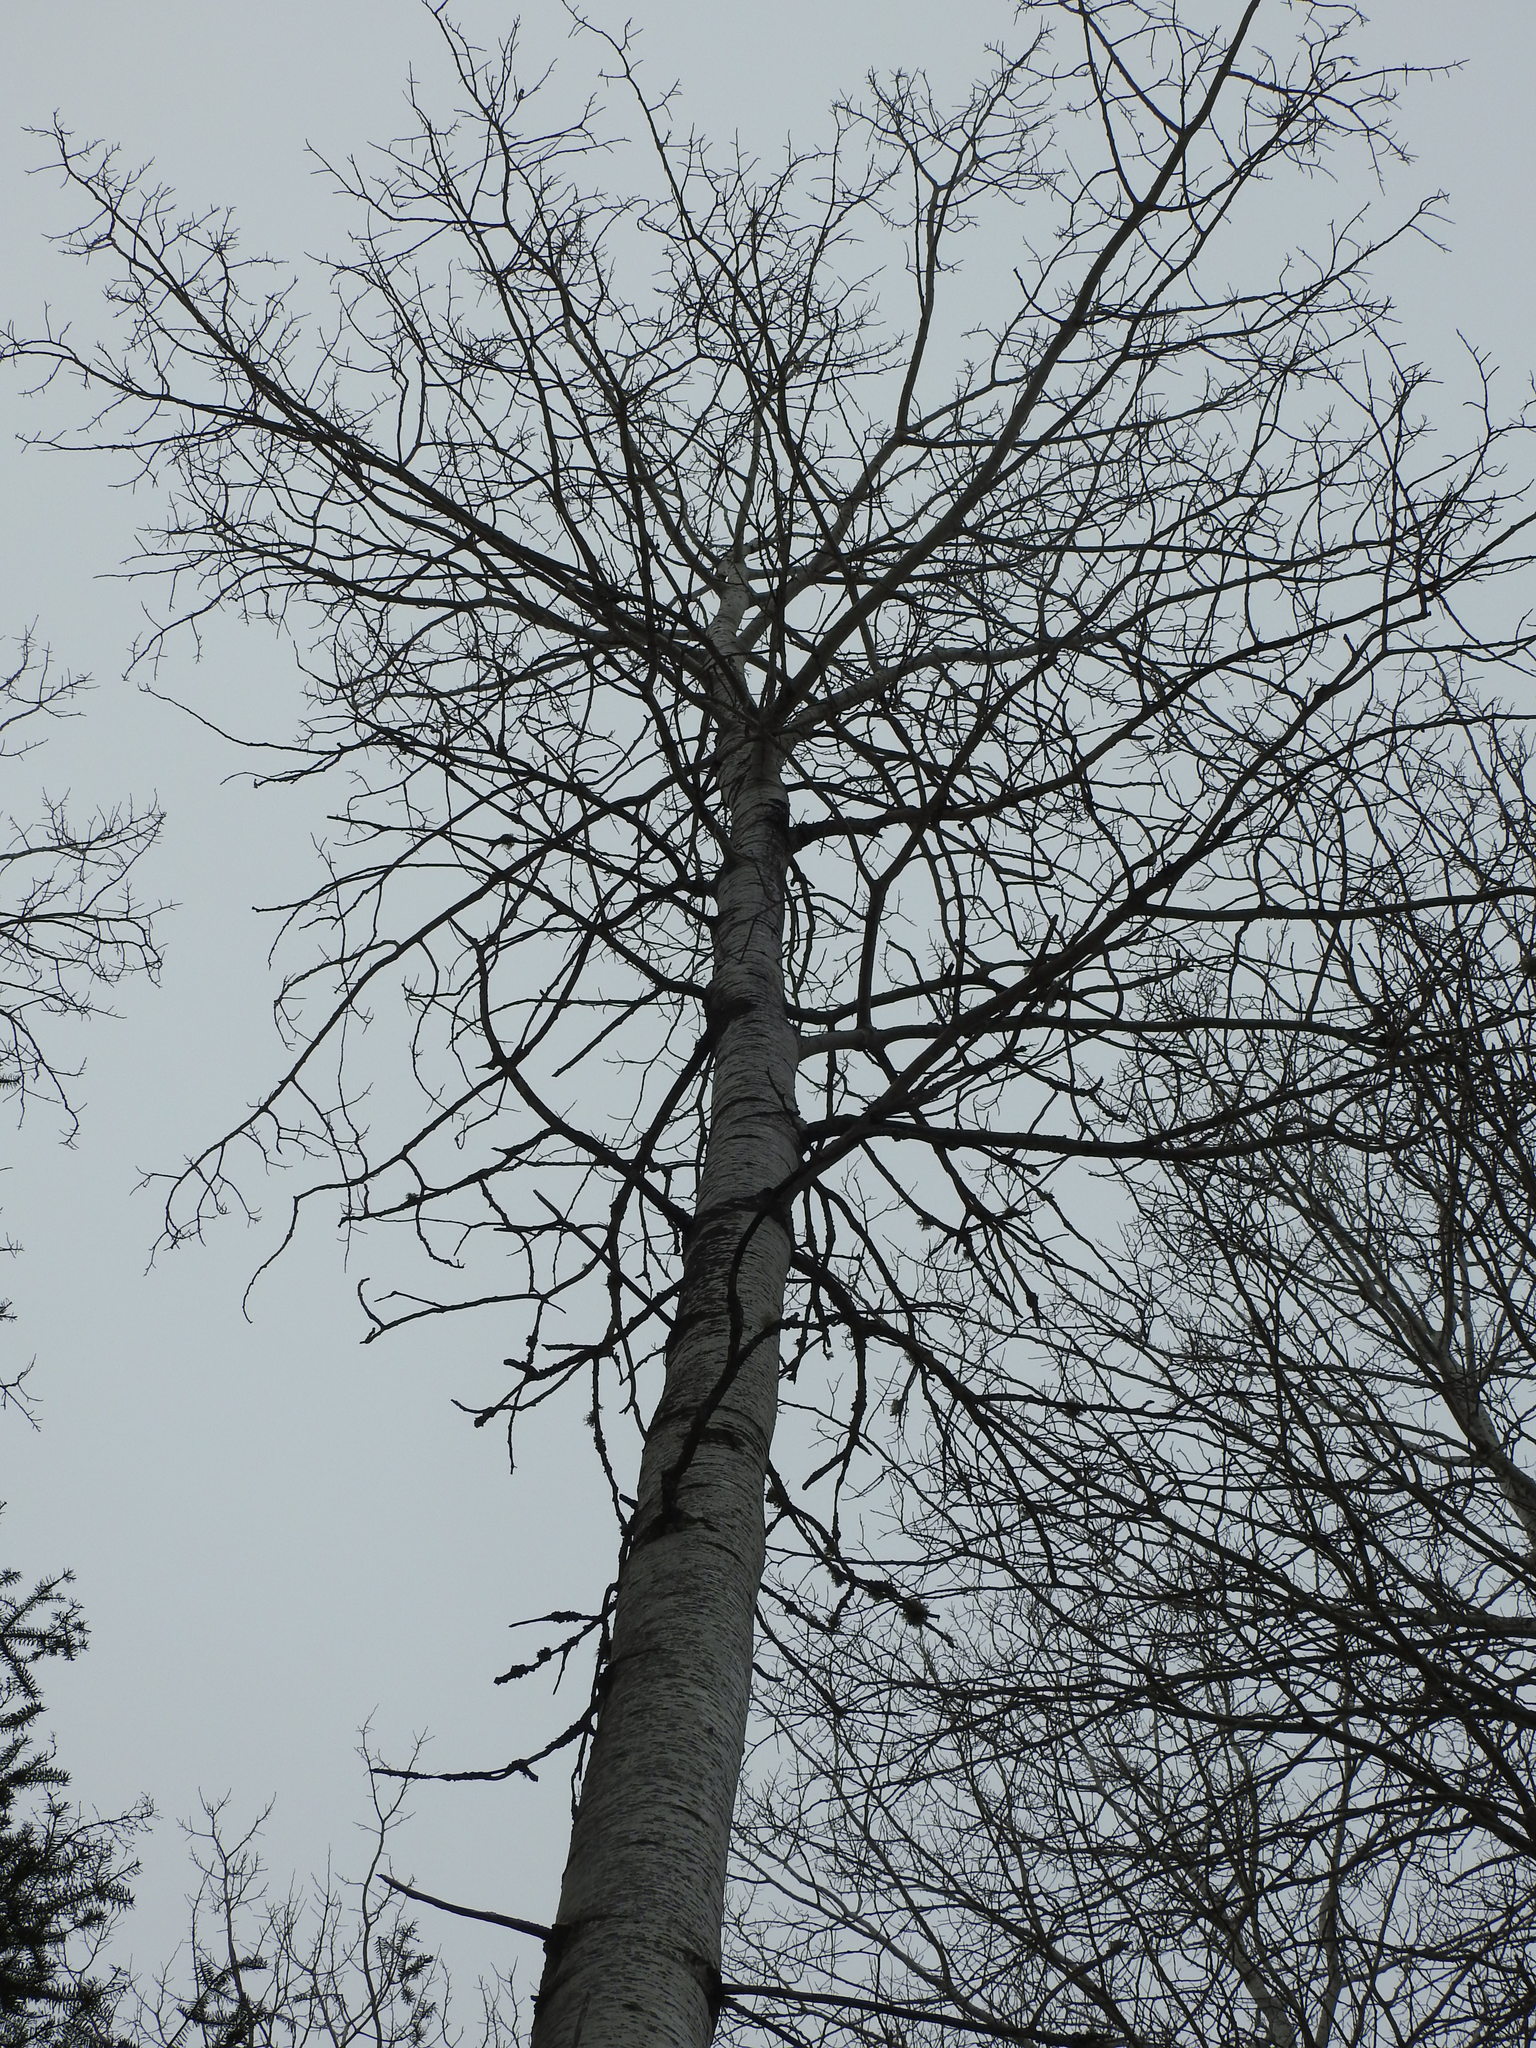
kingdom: Plantae
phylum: Tracheophyta
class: Magnoliopsida
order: Malpighiales
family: Salicaceae
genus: Populus
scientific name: Populus tremuloides
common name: Quaking aspen
